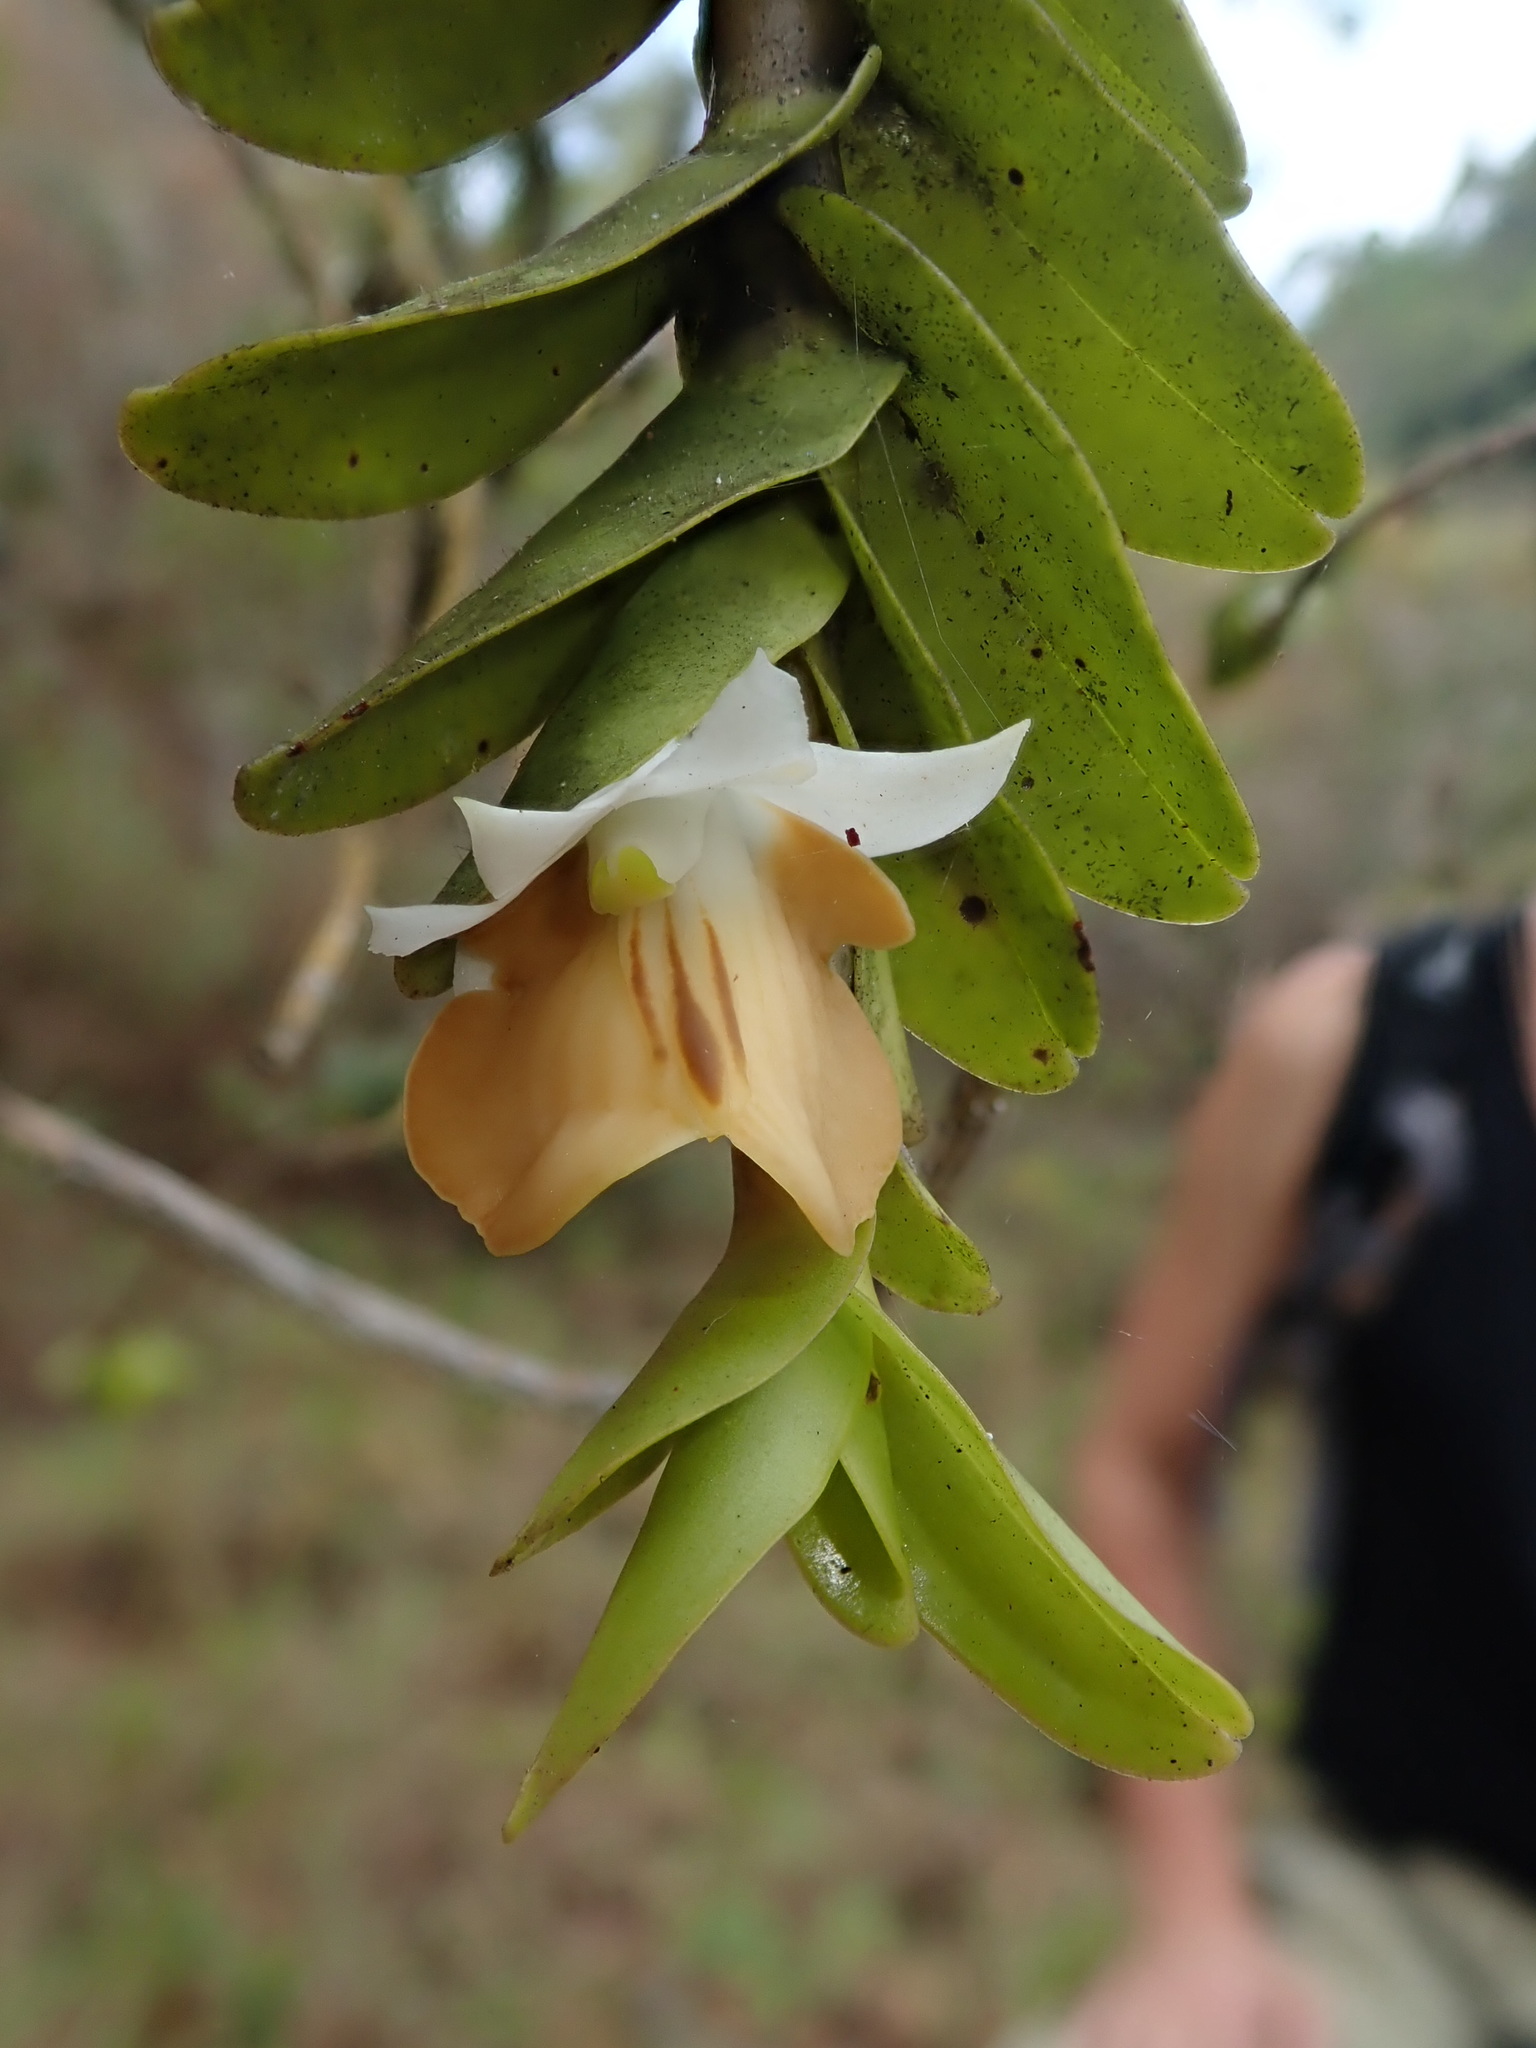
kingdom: Plantae
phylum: Tracheophyta
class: Liliopsida
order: Asparagales
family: Orchidaceae
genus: Dendrobium
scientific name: Dendrobium ellipsophyllum
